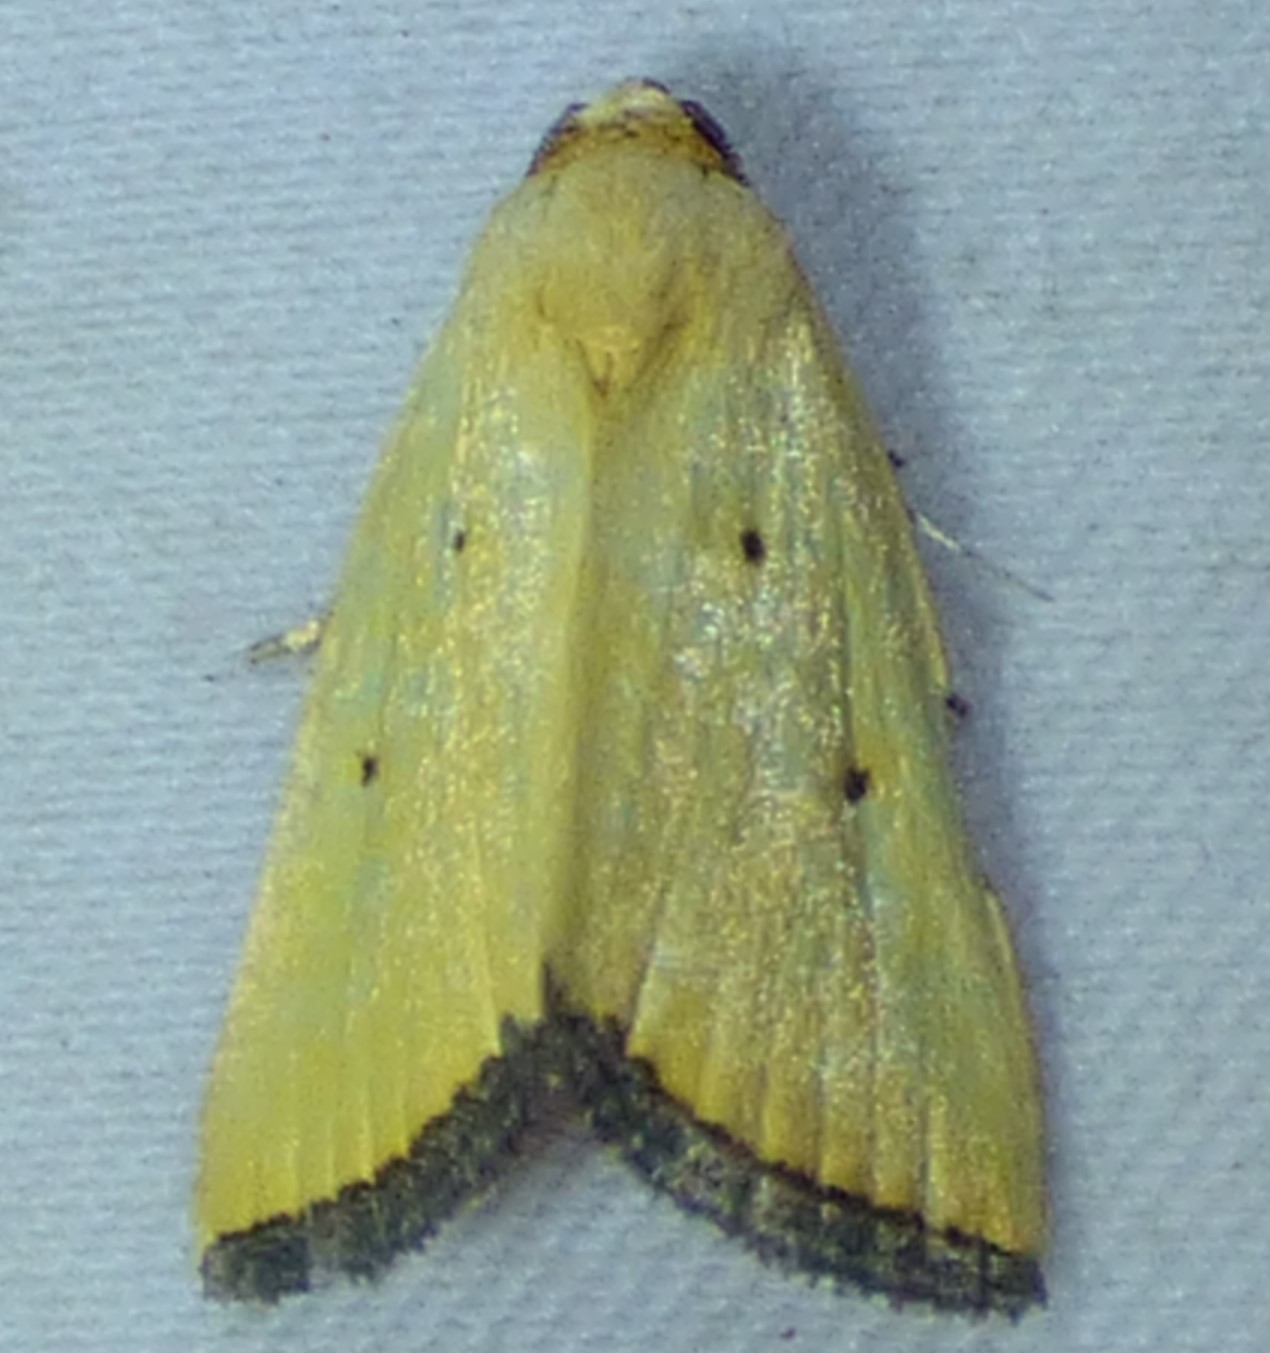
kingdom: Animalia
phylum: Arthropoda
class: Insecta
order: Lepidoptera
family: Noctuidae
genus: Marimatha
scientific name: Marimatha nigrofimbria
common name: Black-bordered lemon moth
